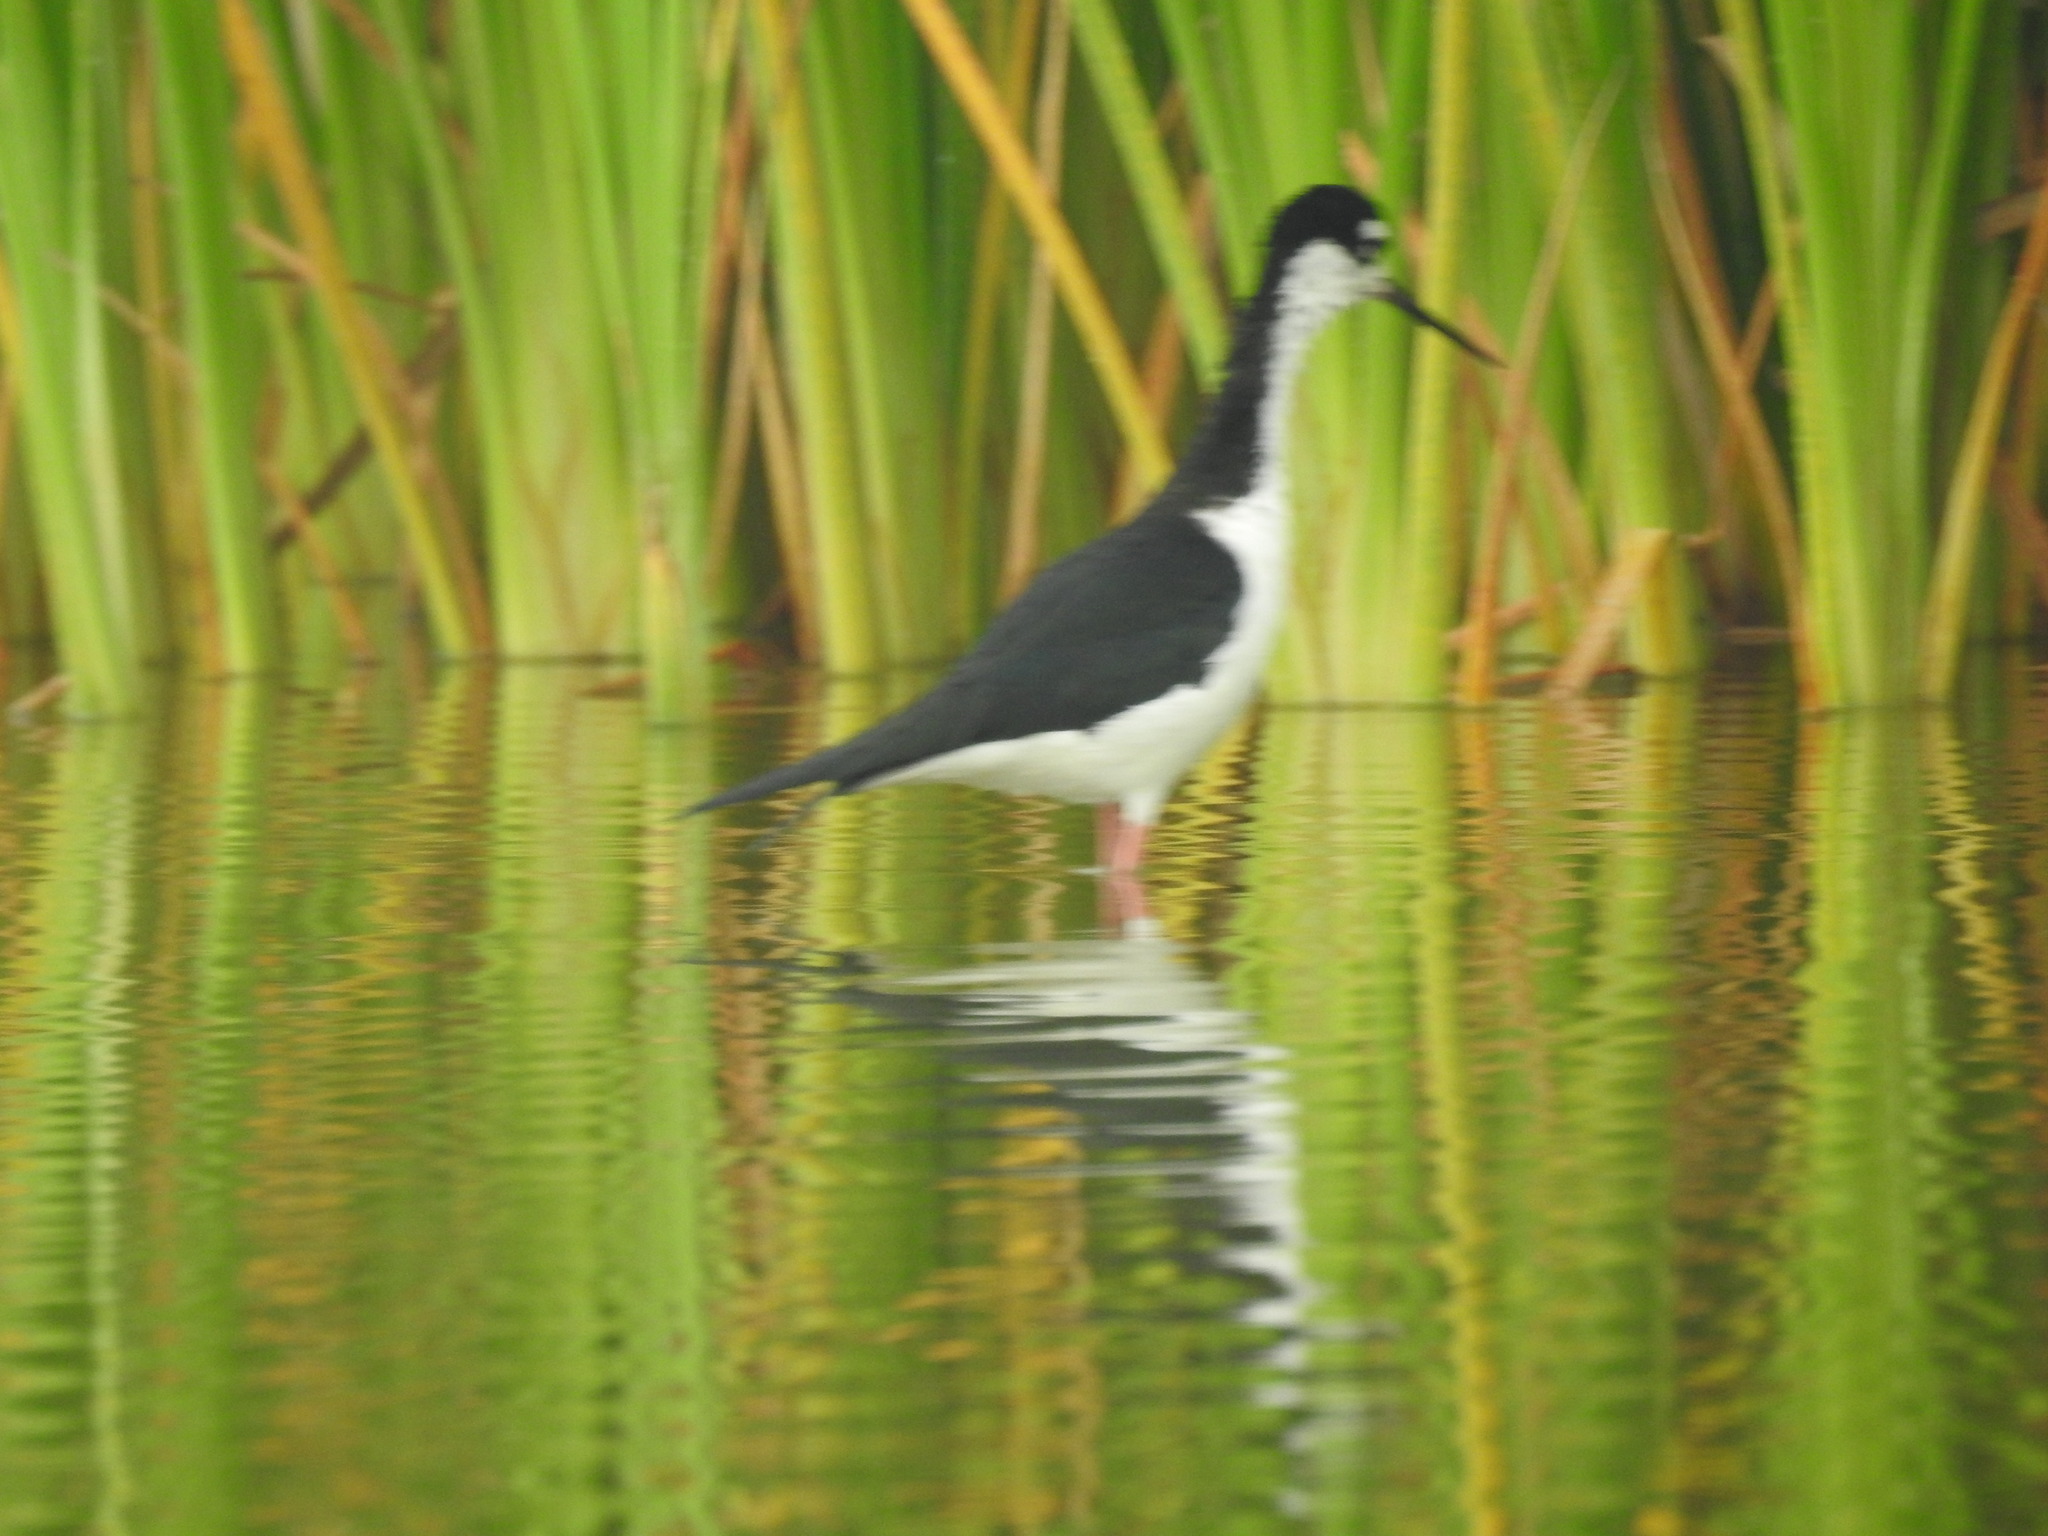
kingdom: Animalia
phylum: Chordata
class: Aves
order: Charadriiformes
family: Recurvirostridae
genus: Himantopus
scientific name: Himantopus mexicanus
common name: Black-necked stilt
